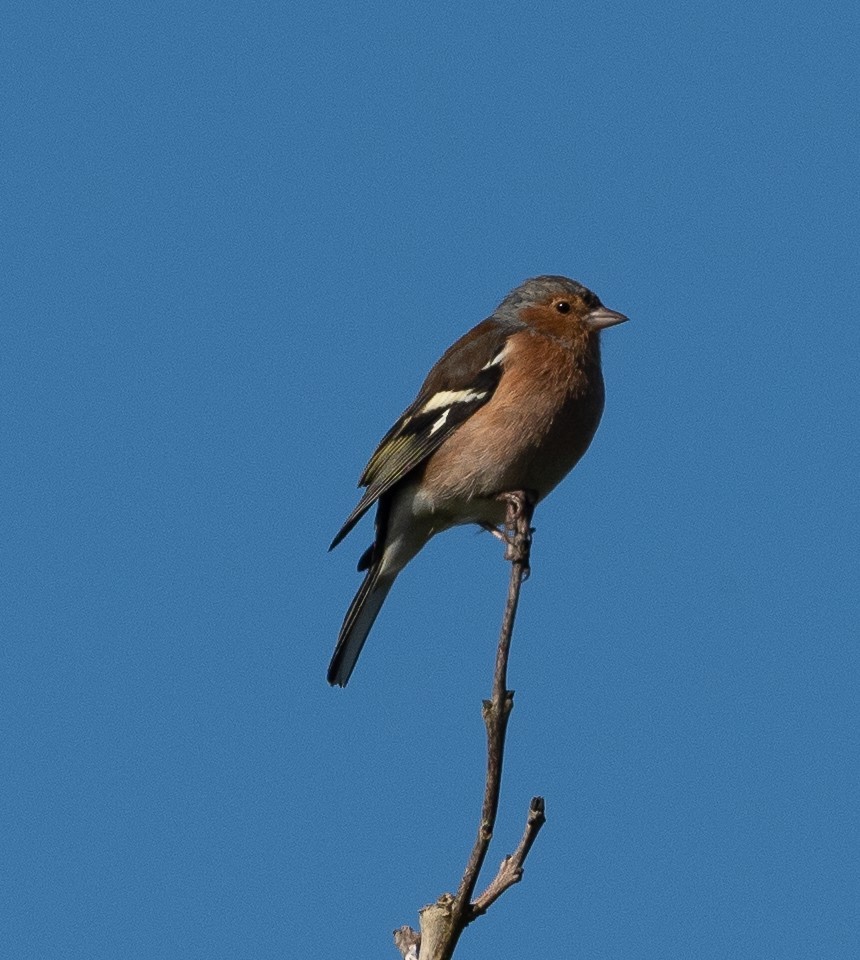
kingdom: Animalia
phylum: Chordata
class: Aves
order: Passeriformes
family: Fringillidae
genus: Fringilla
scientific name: Fringilla coelebs
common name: Common chaffinch
